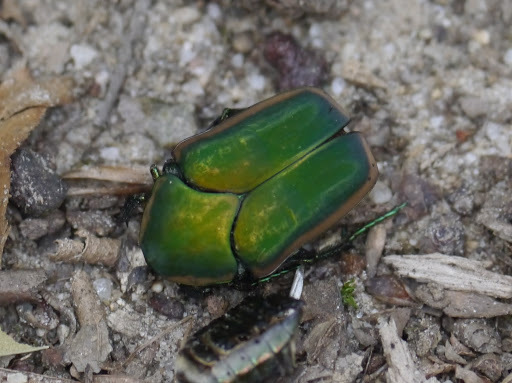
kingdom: Animalia
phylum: Arthropoda
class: Insecta
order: Coleoptera
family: Scarabaeidae
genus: Cotinis
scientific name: Cotinis nitida
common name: Common green june beetle
